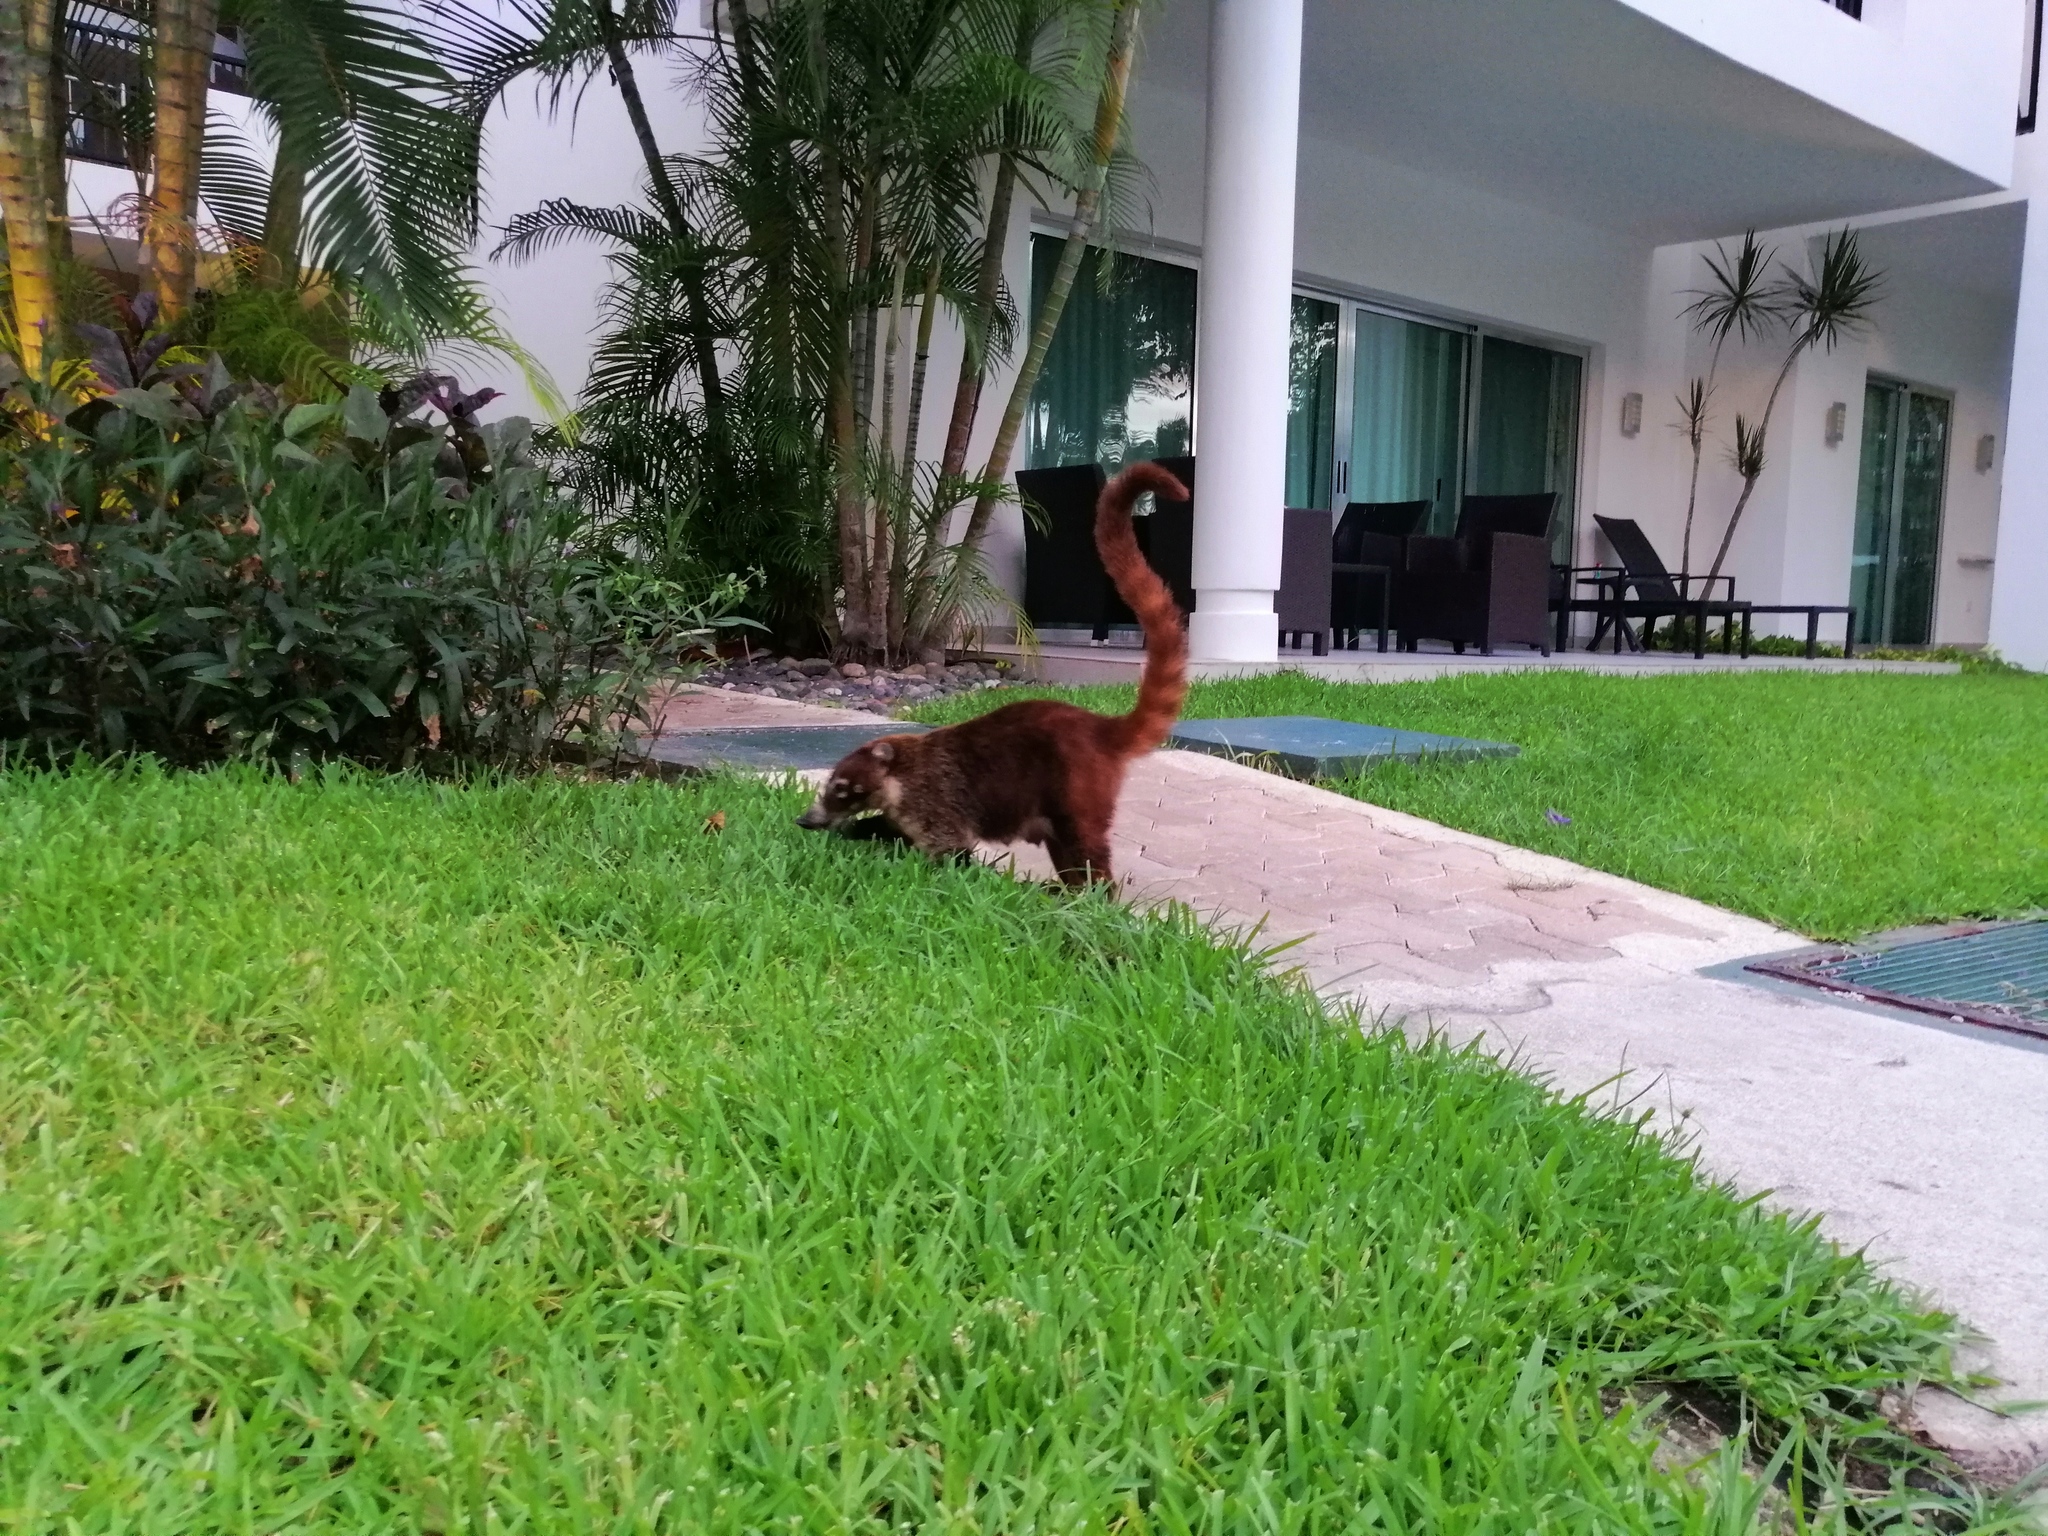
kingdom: Animalia
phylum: Chordata
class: Mammalia
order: Carnivora
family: Procyonidae
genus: Nasua
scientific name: Nasua narica
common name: White-nosed coati
